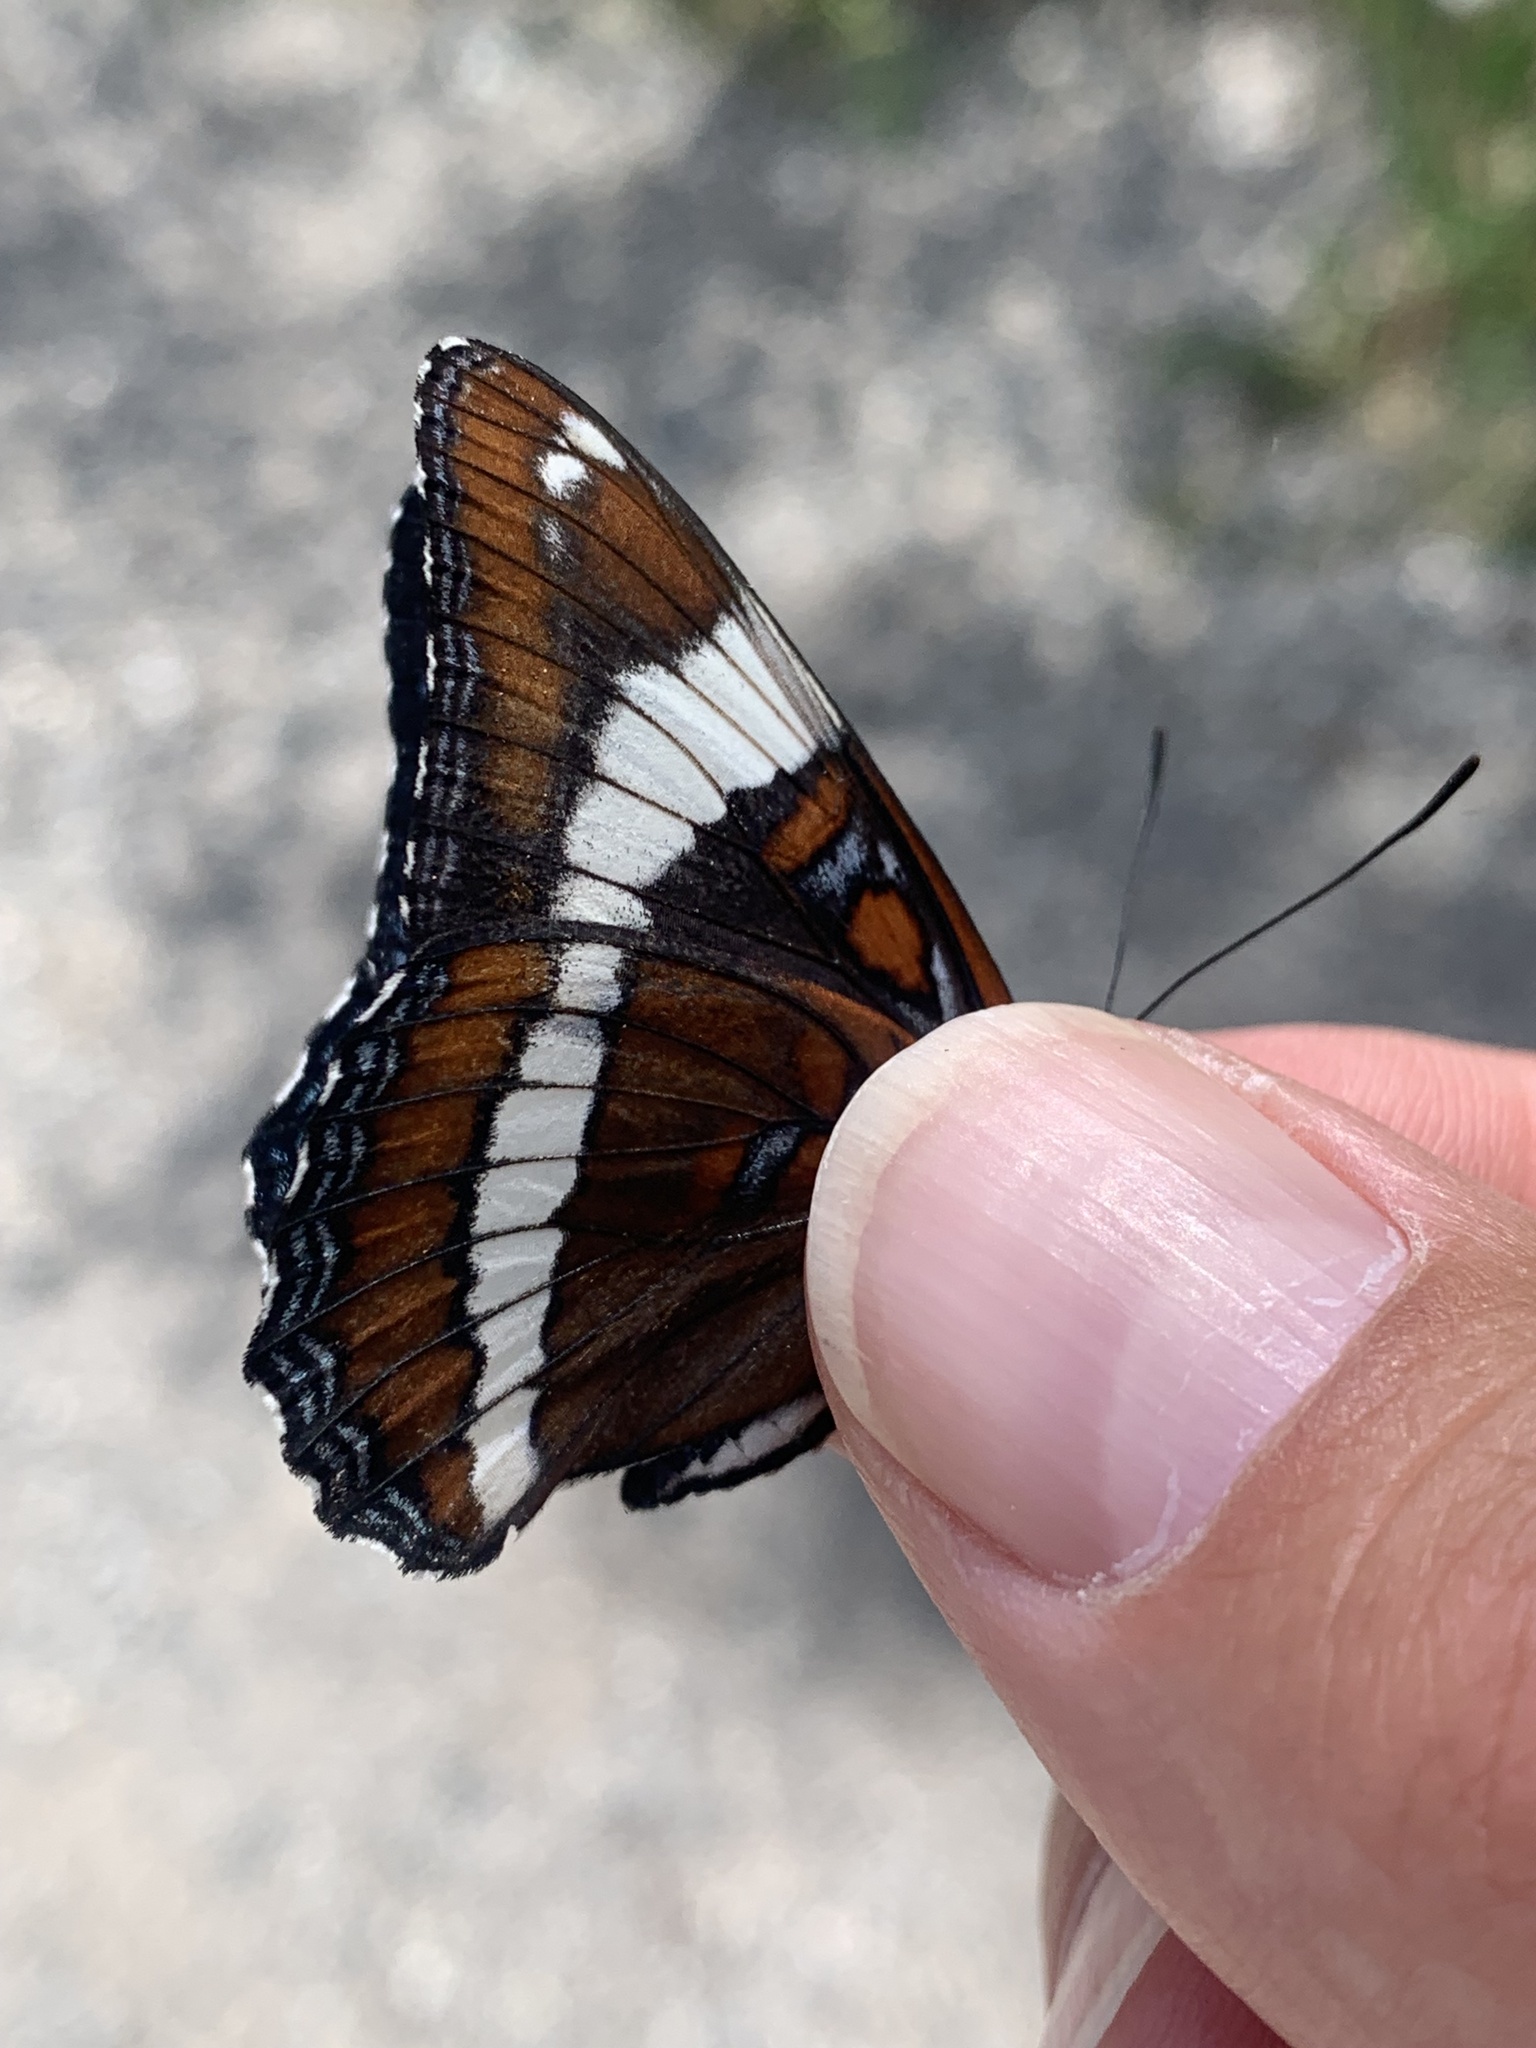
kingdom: Animalia
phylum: Arthropoda
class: Insecta
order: Lepidoptera
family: Nymphalidae
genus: Limenitis
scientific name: Limenitis arthemis
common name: Red-spotted admiral
